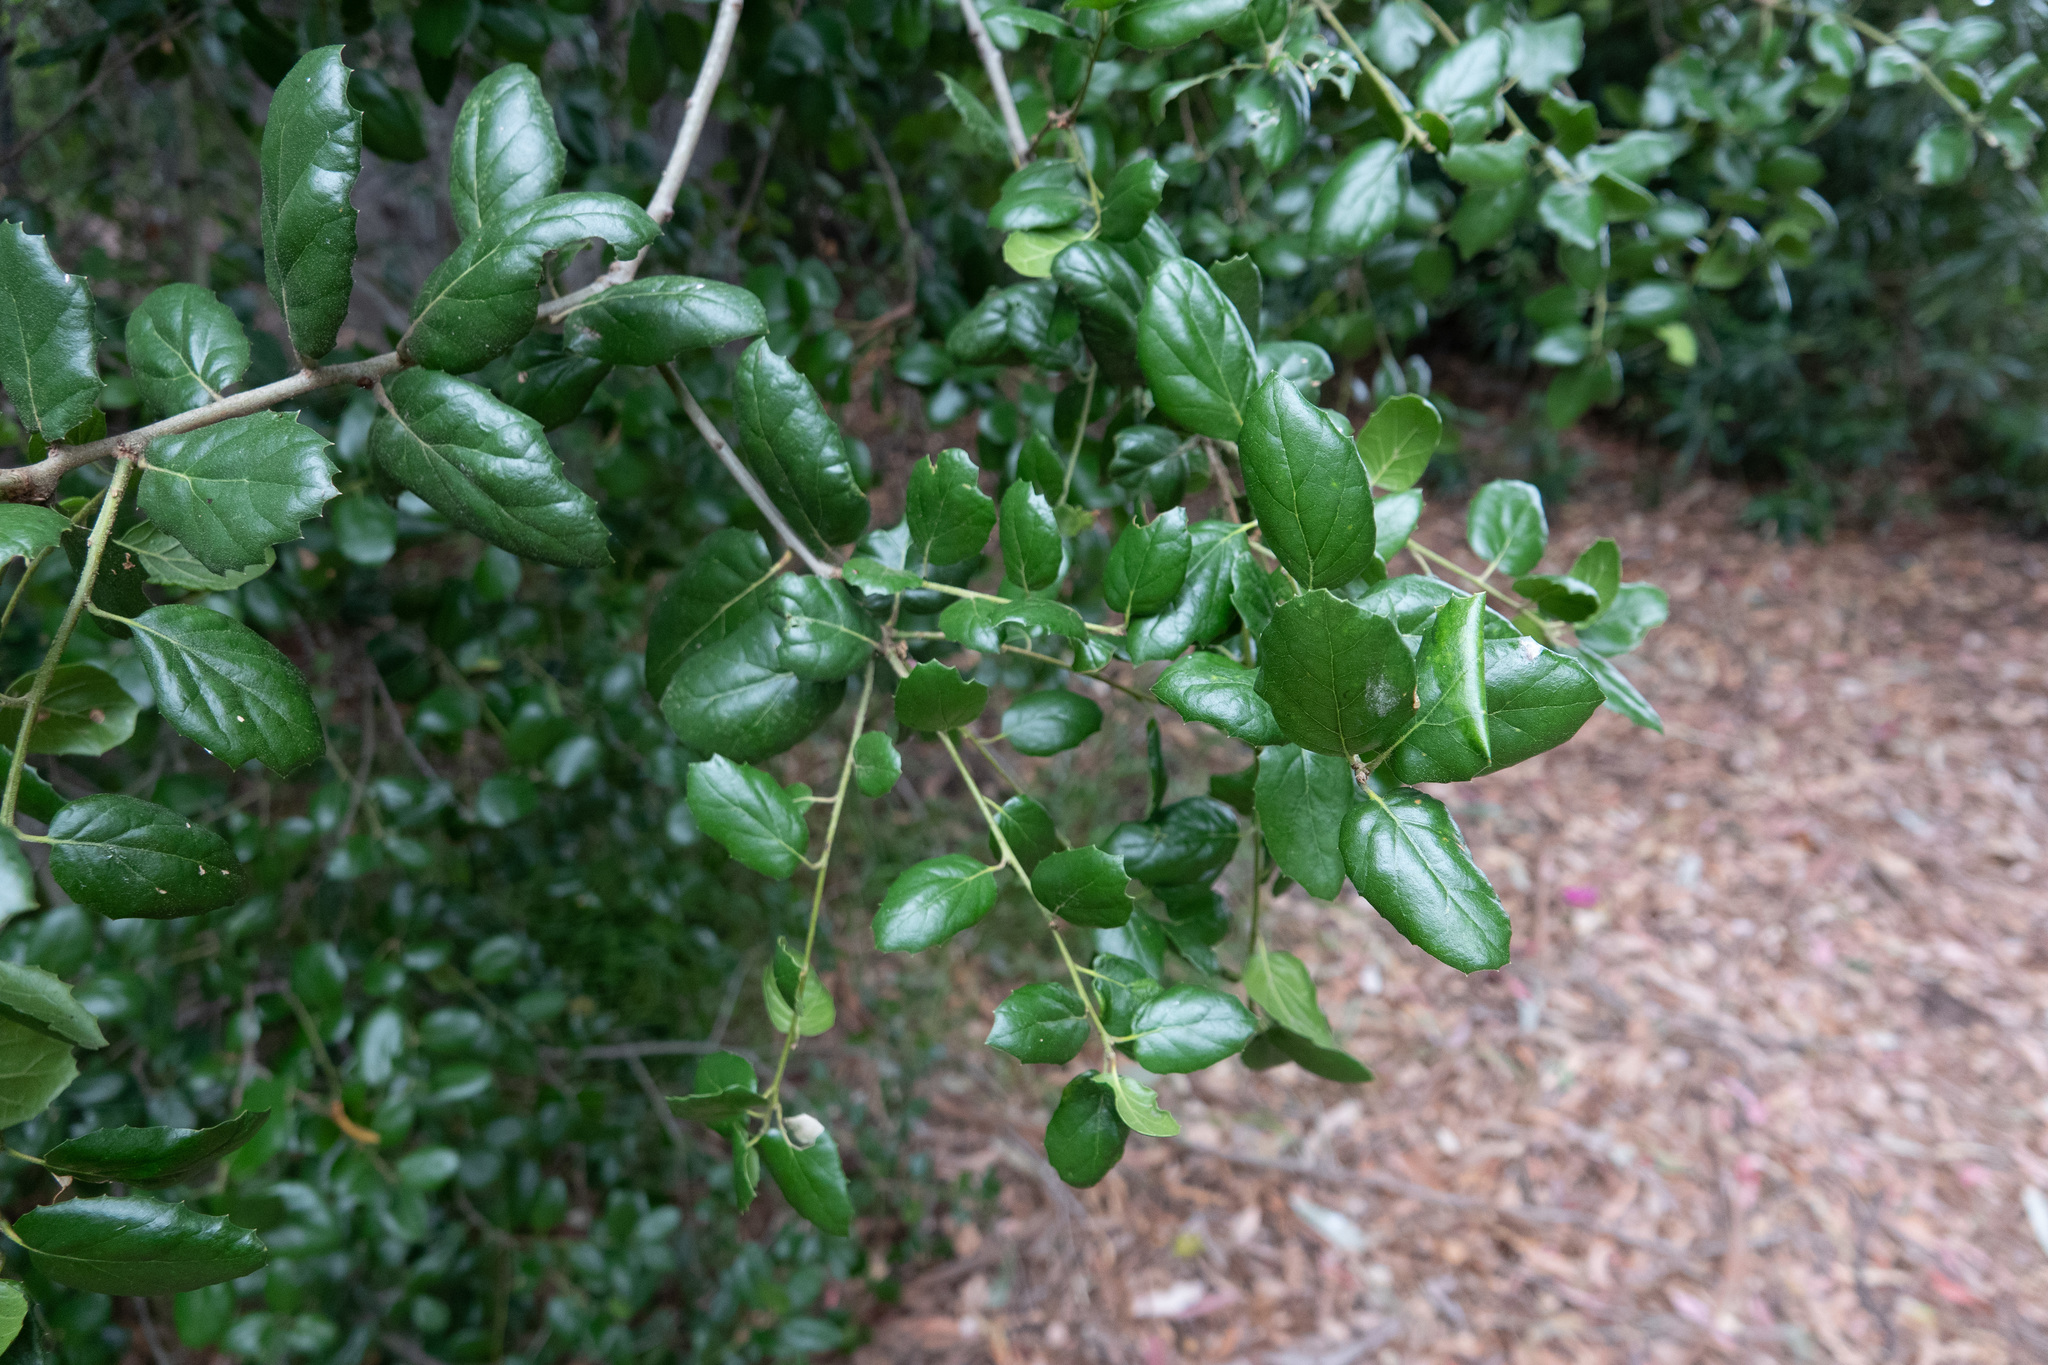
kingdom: Plantae
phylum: Tracheophyta
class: Magnoliopsida
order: Fagales
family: Fagaceae
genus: Quercus
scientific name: Quercus agrifolia
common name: California live oak
